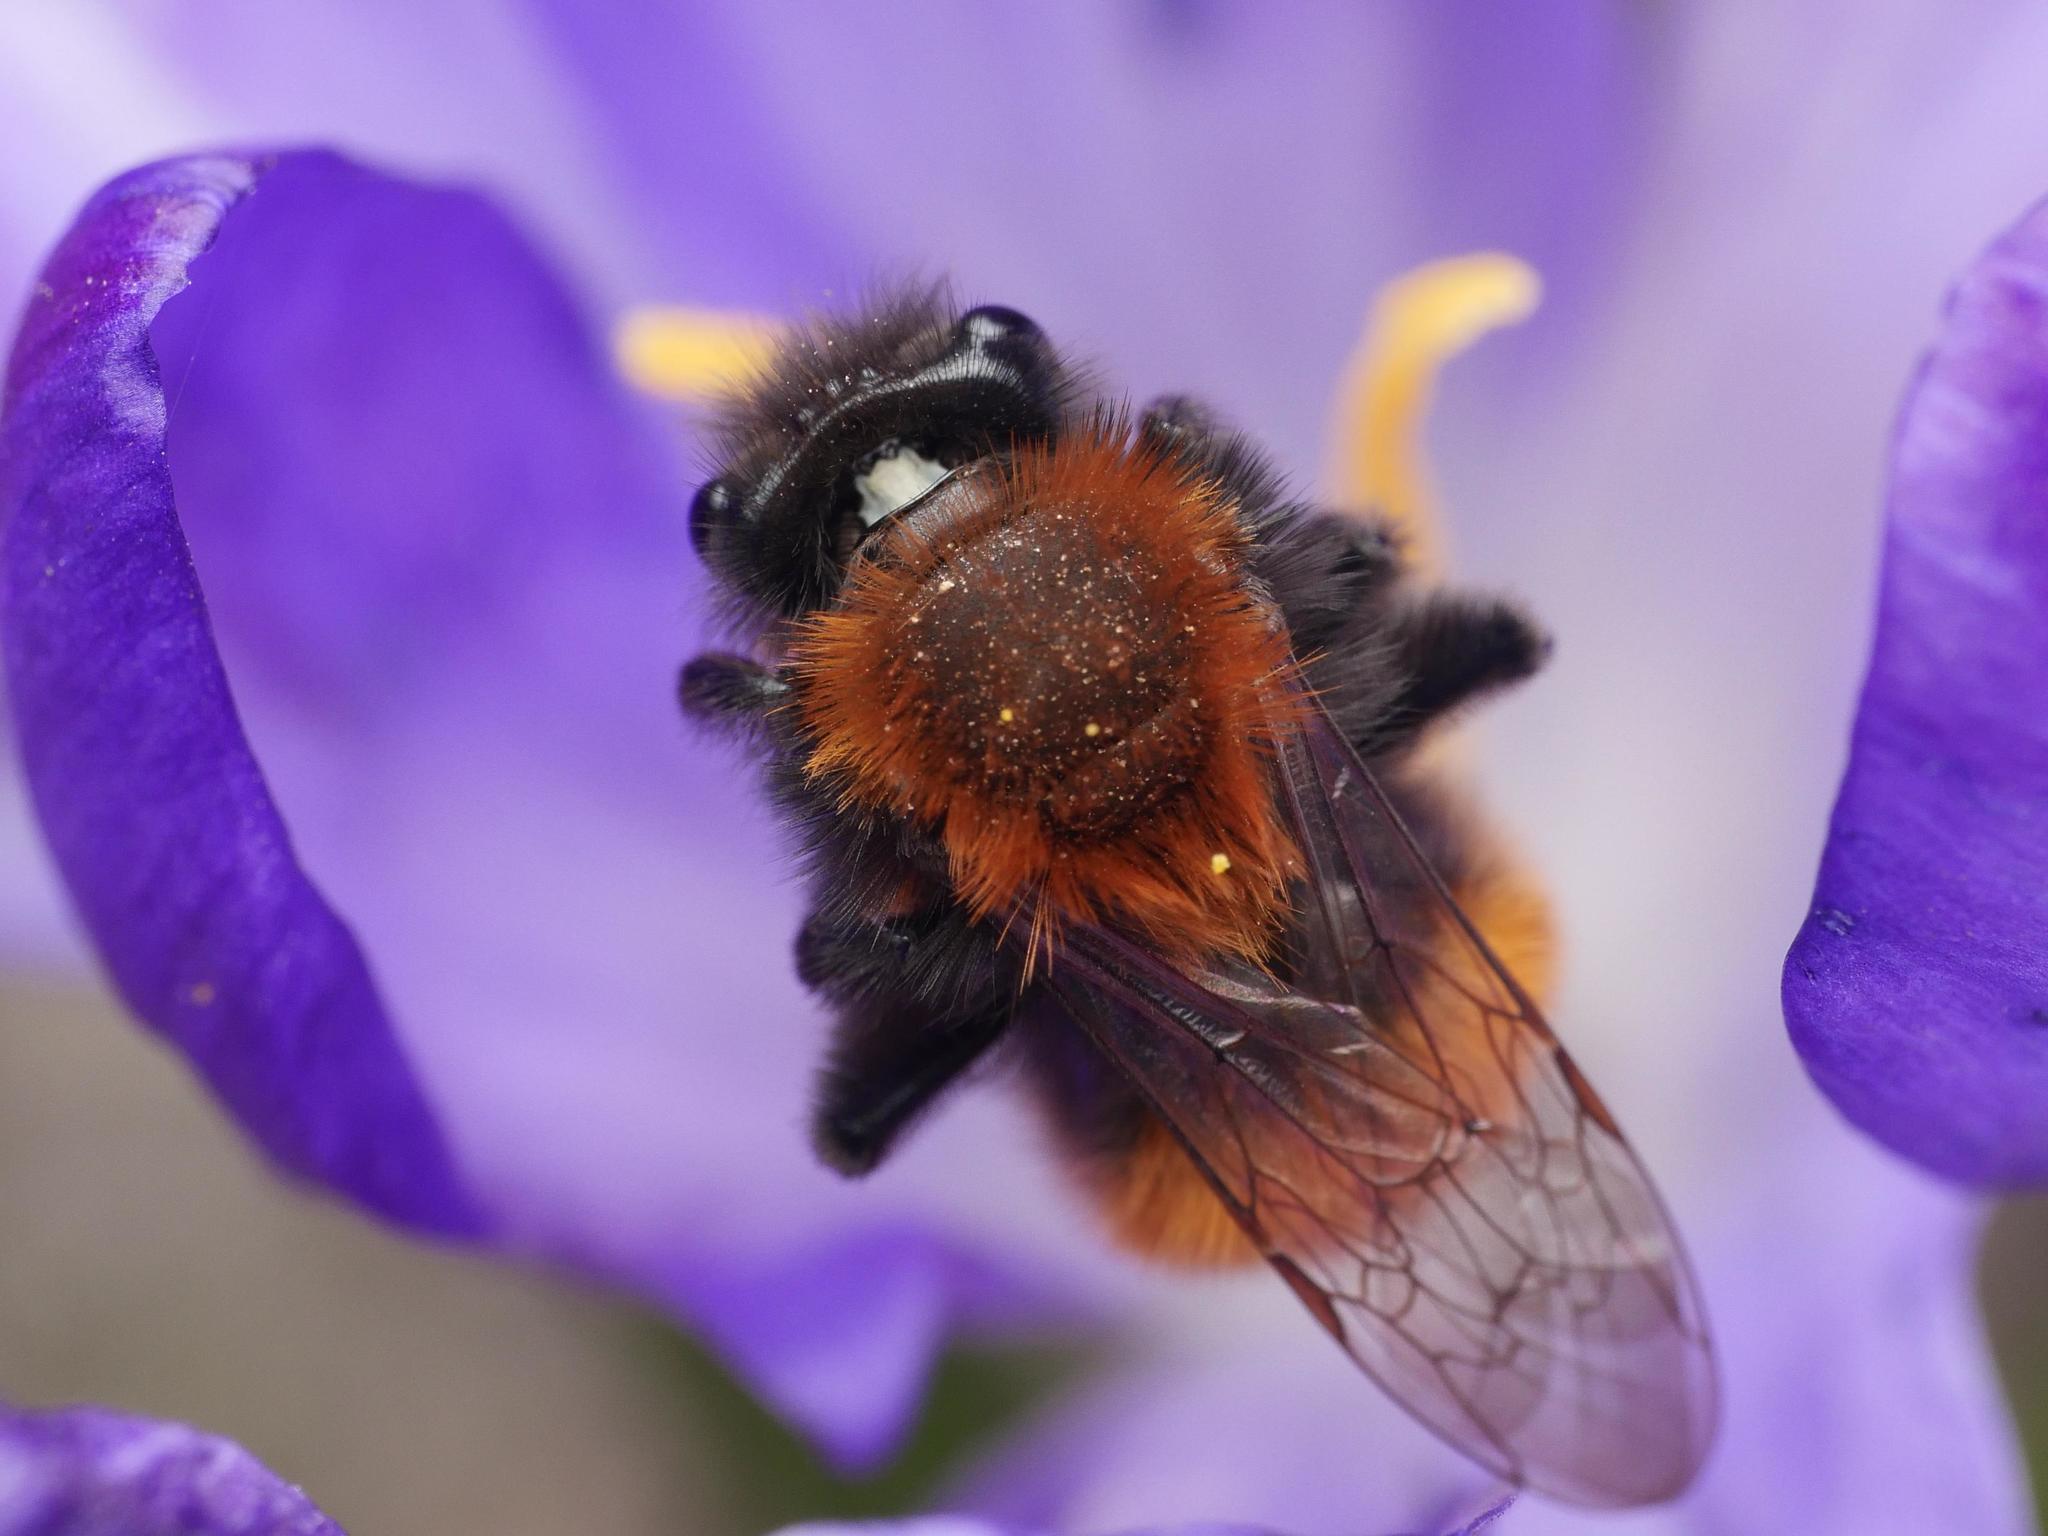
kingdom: Animalia
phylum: Arthropoda
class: Insecta
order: Hymenoptera
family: Andrenidae
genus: Andrena
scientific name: Andrena fulva
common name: Tawny mining bee
